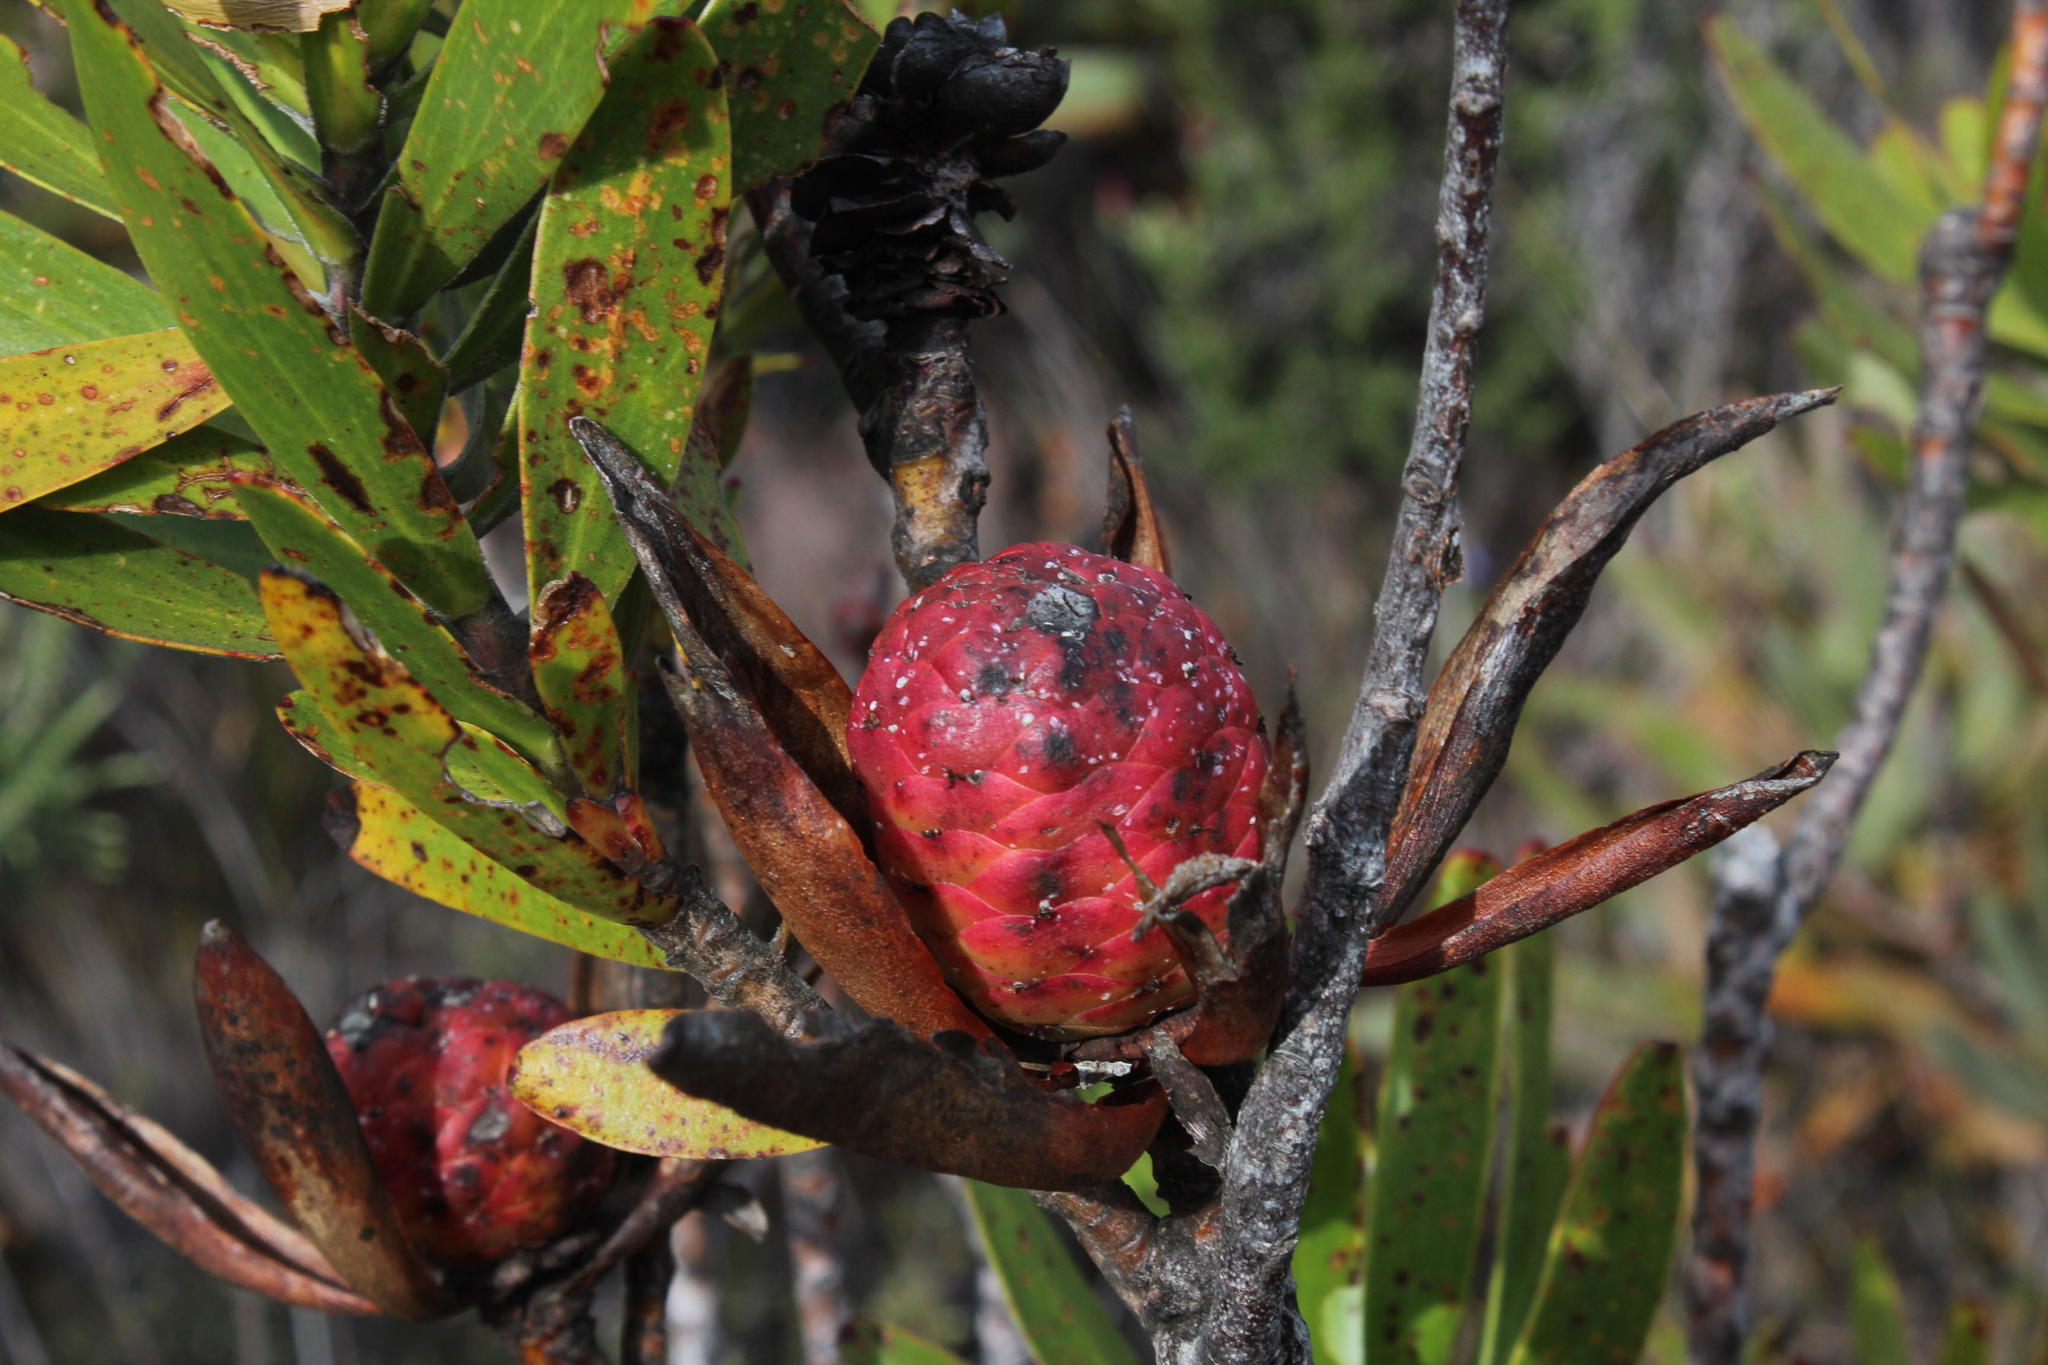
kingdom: Plantae
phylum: Tracheophyta
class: Magnoliopsida
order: Proteales
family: Proteaceae
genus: Leucadendron
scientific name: Leucadendron laureolum
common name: Golden sunshinebush
